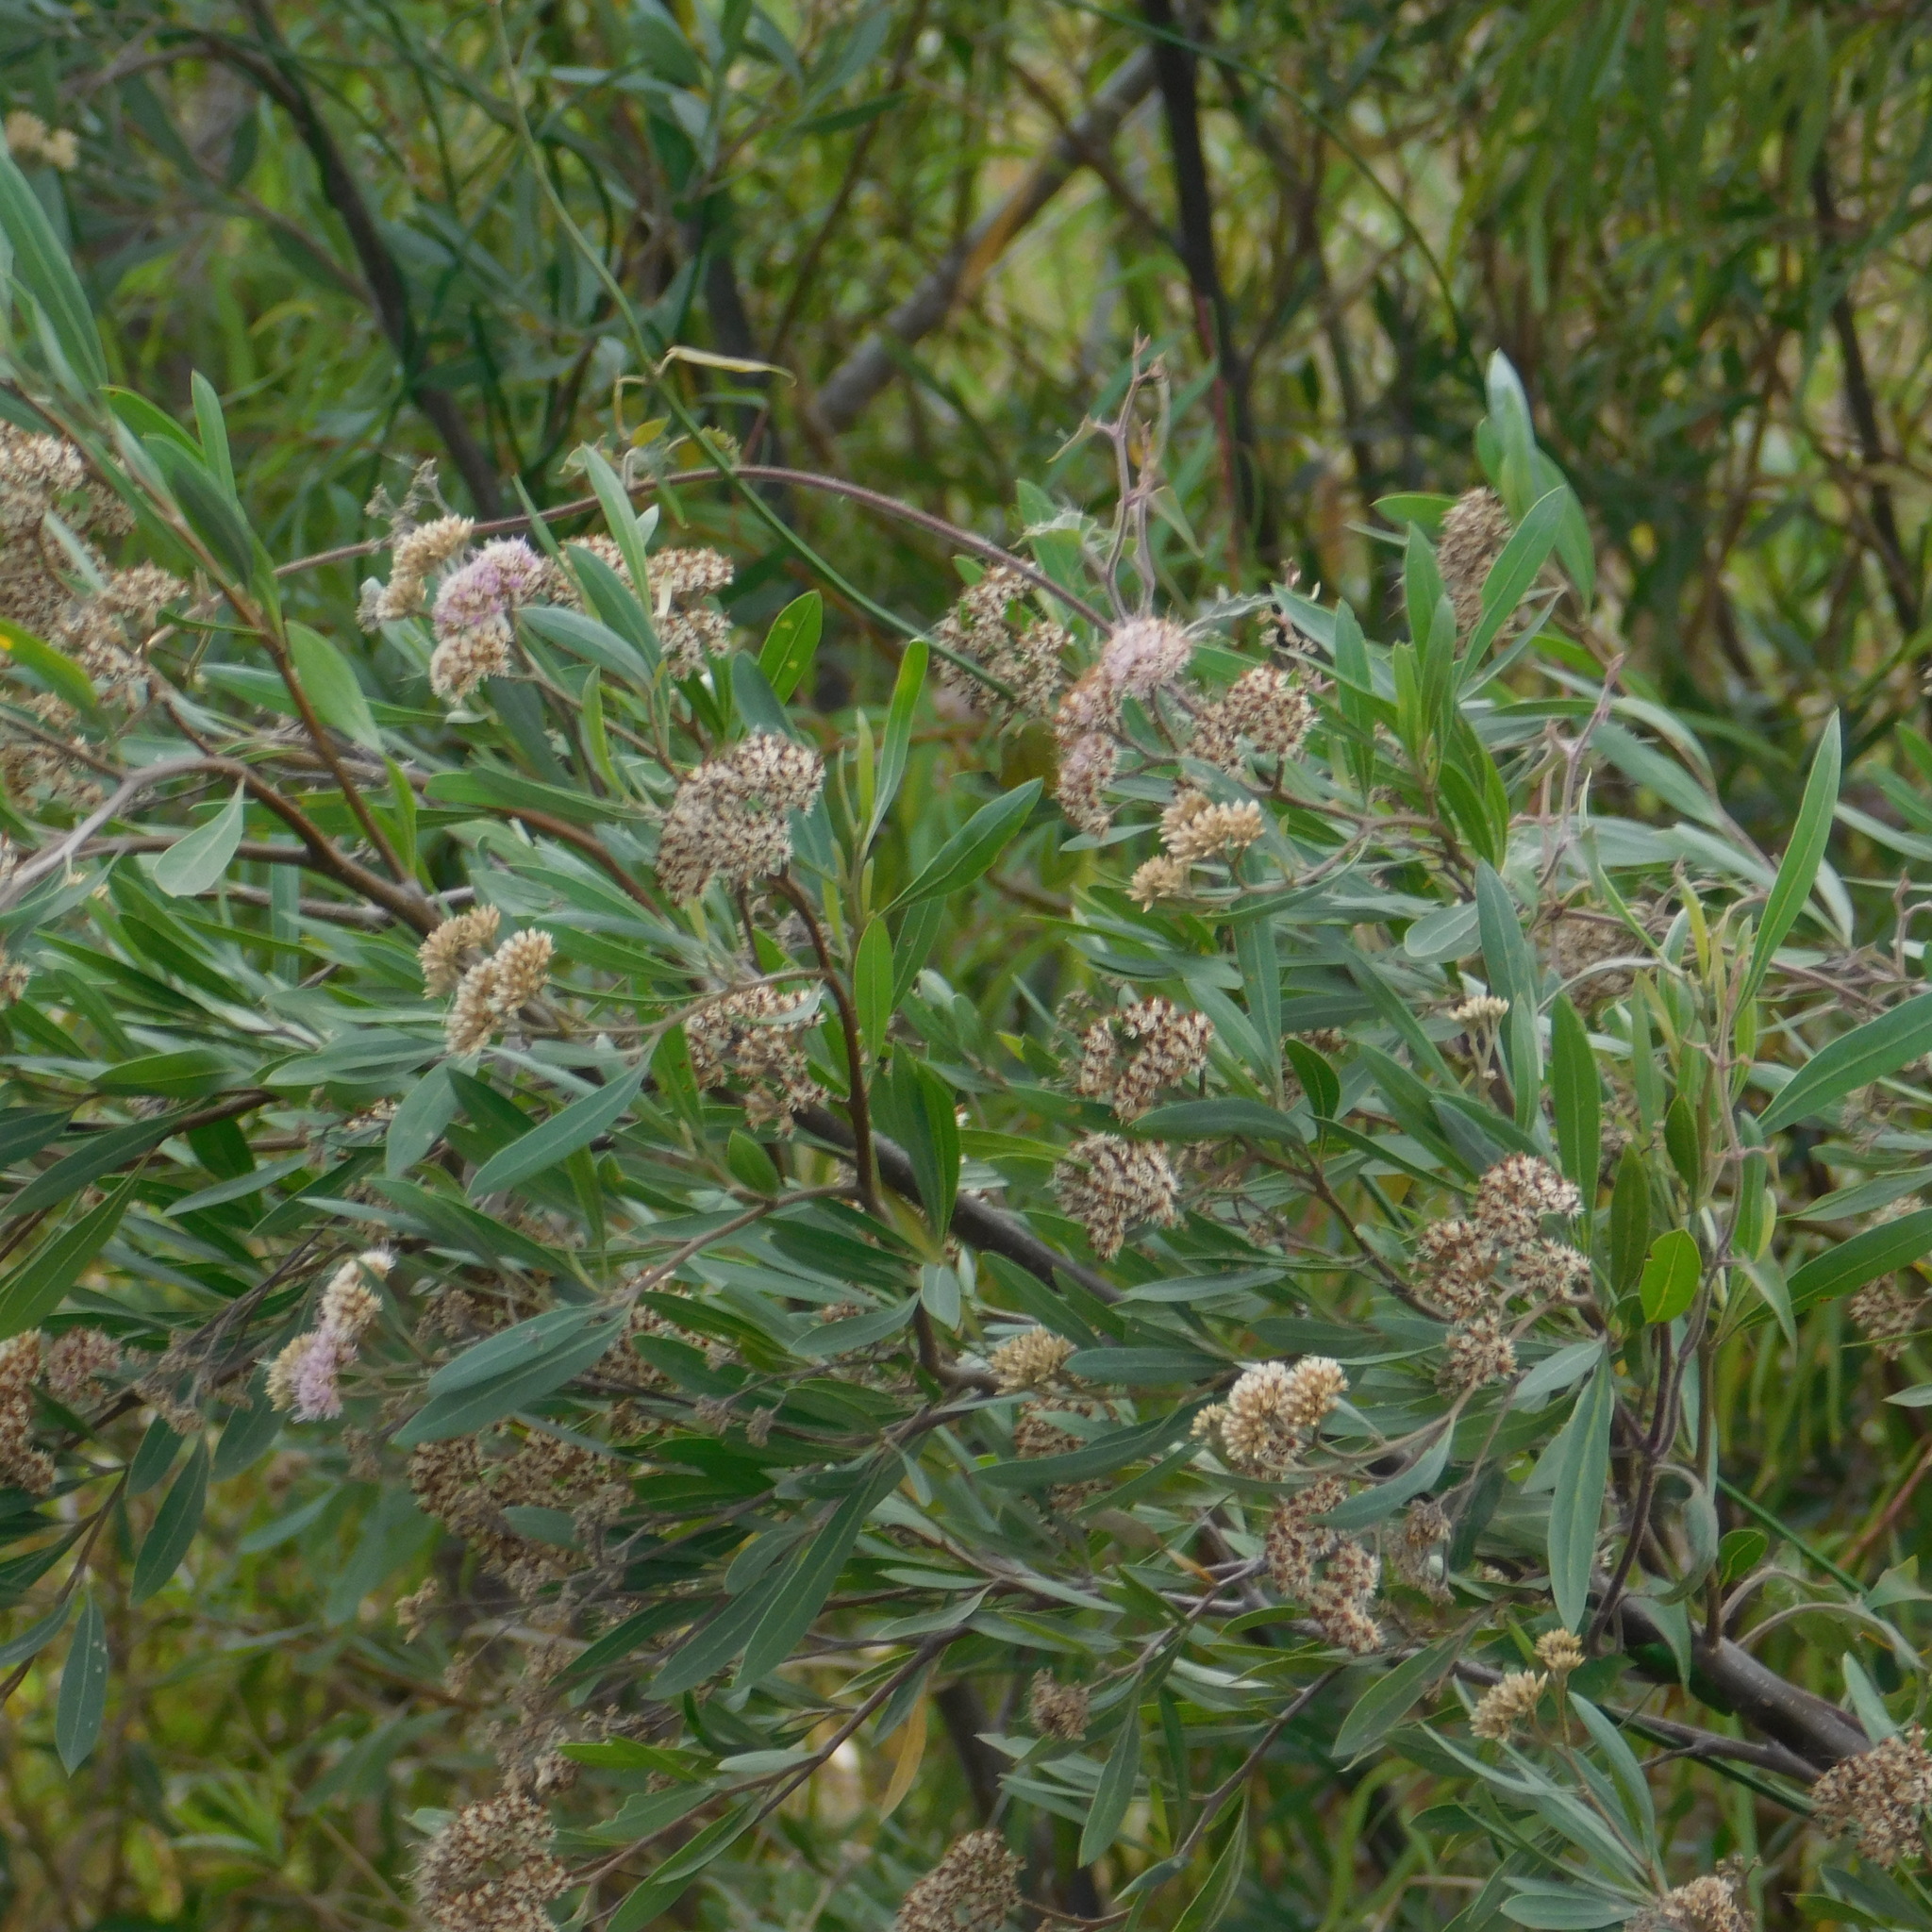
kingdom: Plantae
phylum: Tracheophyta
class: Magnoliopsida
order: Asterales
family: Asteraceae
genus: Tessaria
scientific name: Tessaria integrifolia
